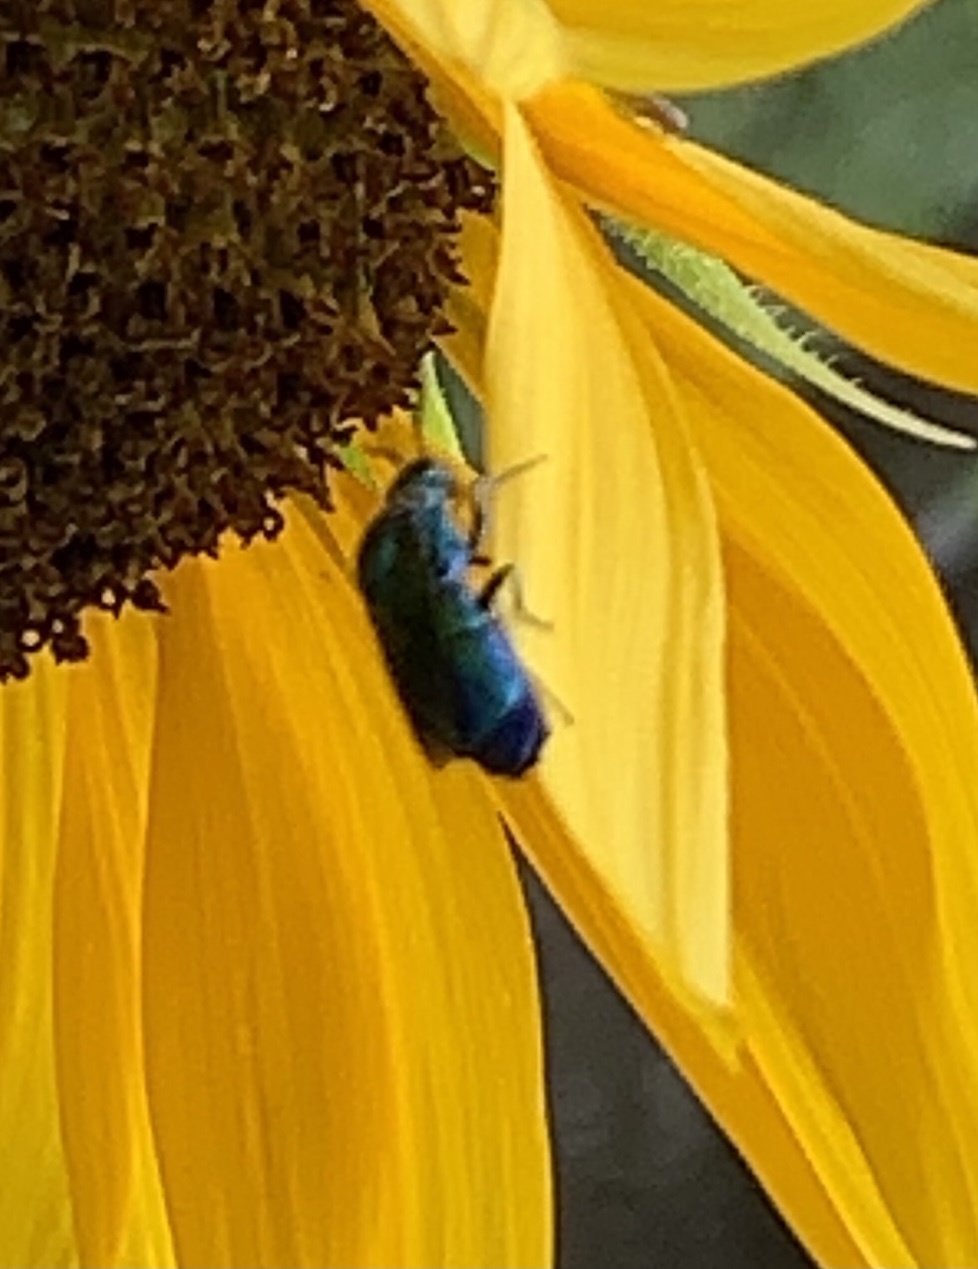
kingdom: Animalia
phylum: Arthropoda
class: Insecta
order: Hymenoptera
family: Chrysididae
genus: Chrysis
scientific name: Chrysis angolensis
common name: Cuckoo wasp
